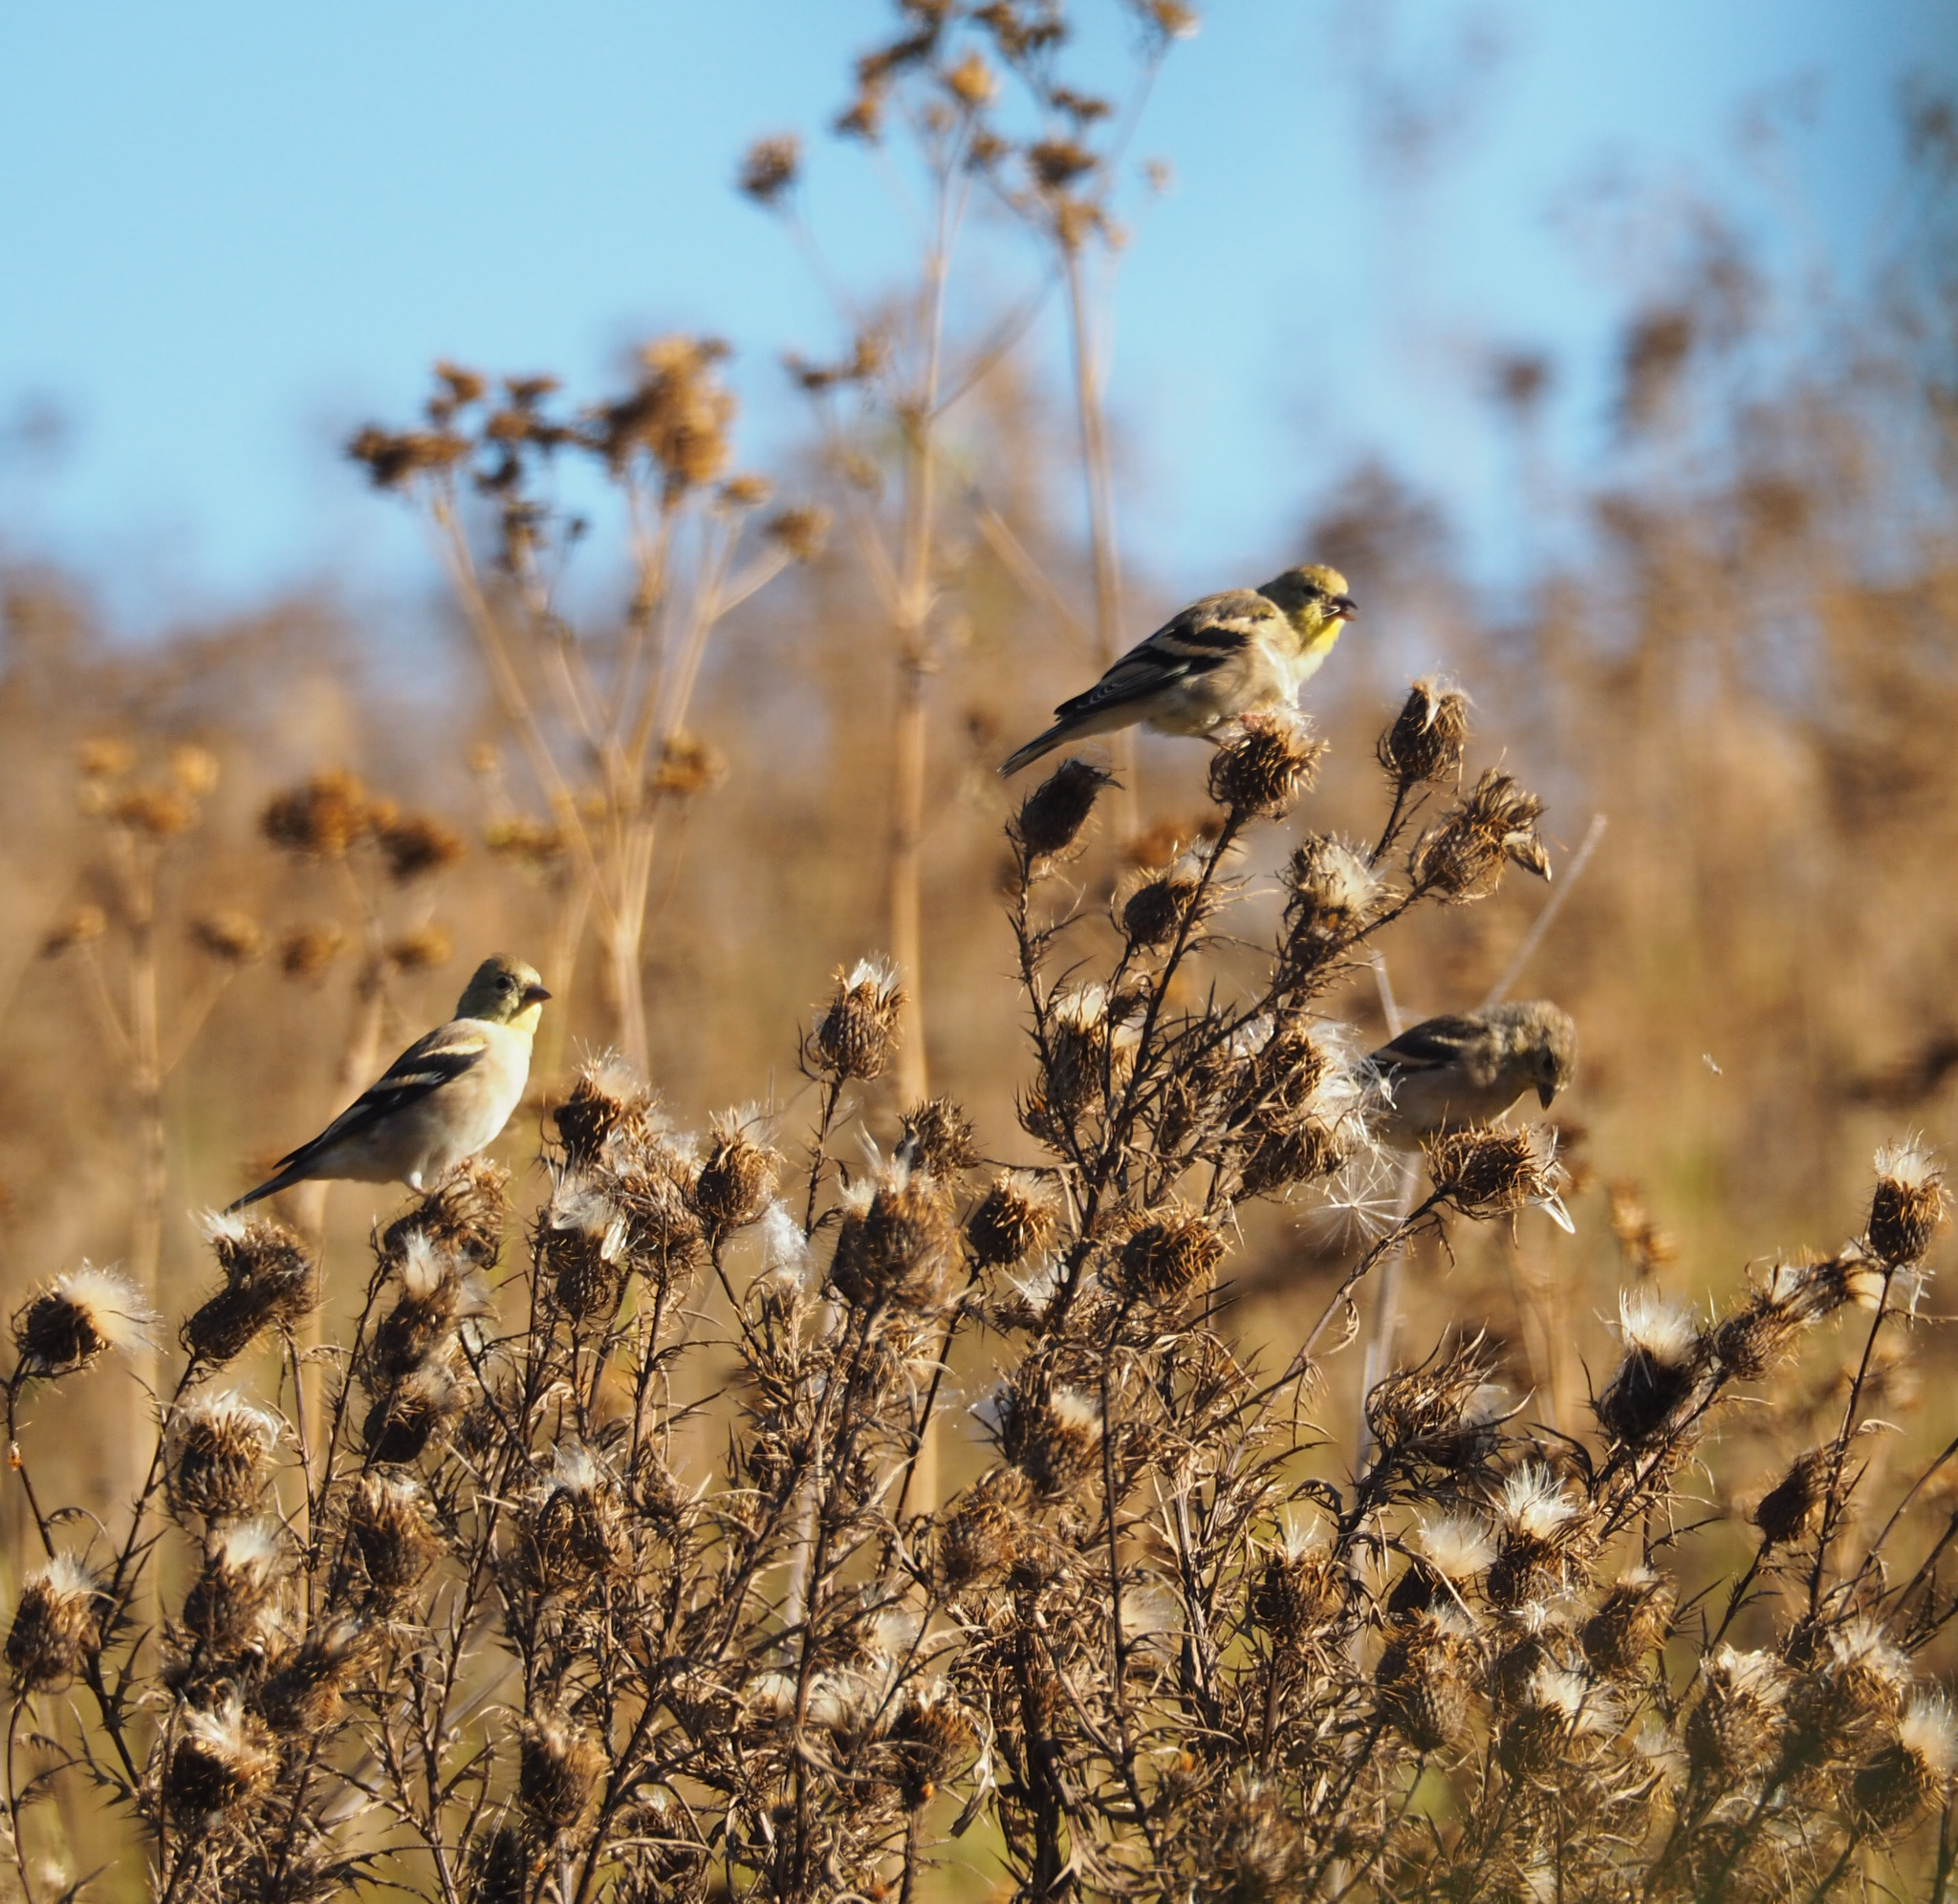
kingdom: Animalia
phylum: Chordata
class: Aves
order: Passeriformes
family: Fringillidae
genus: Spinus
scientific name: Spinus tristis
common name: American goldfinch
